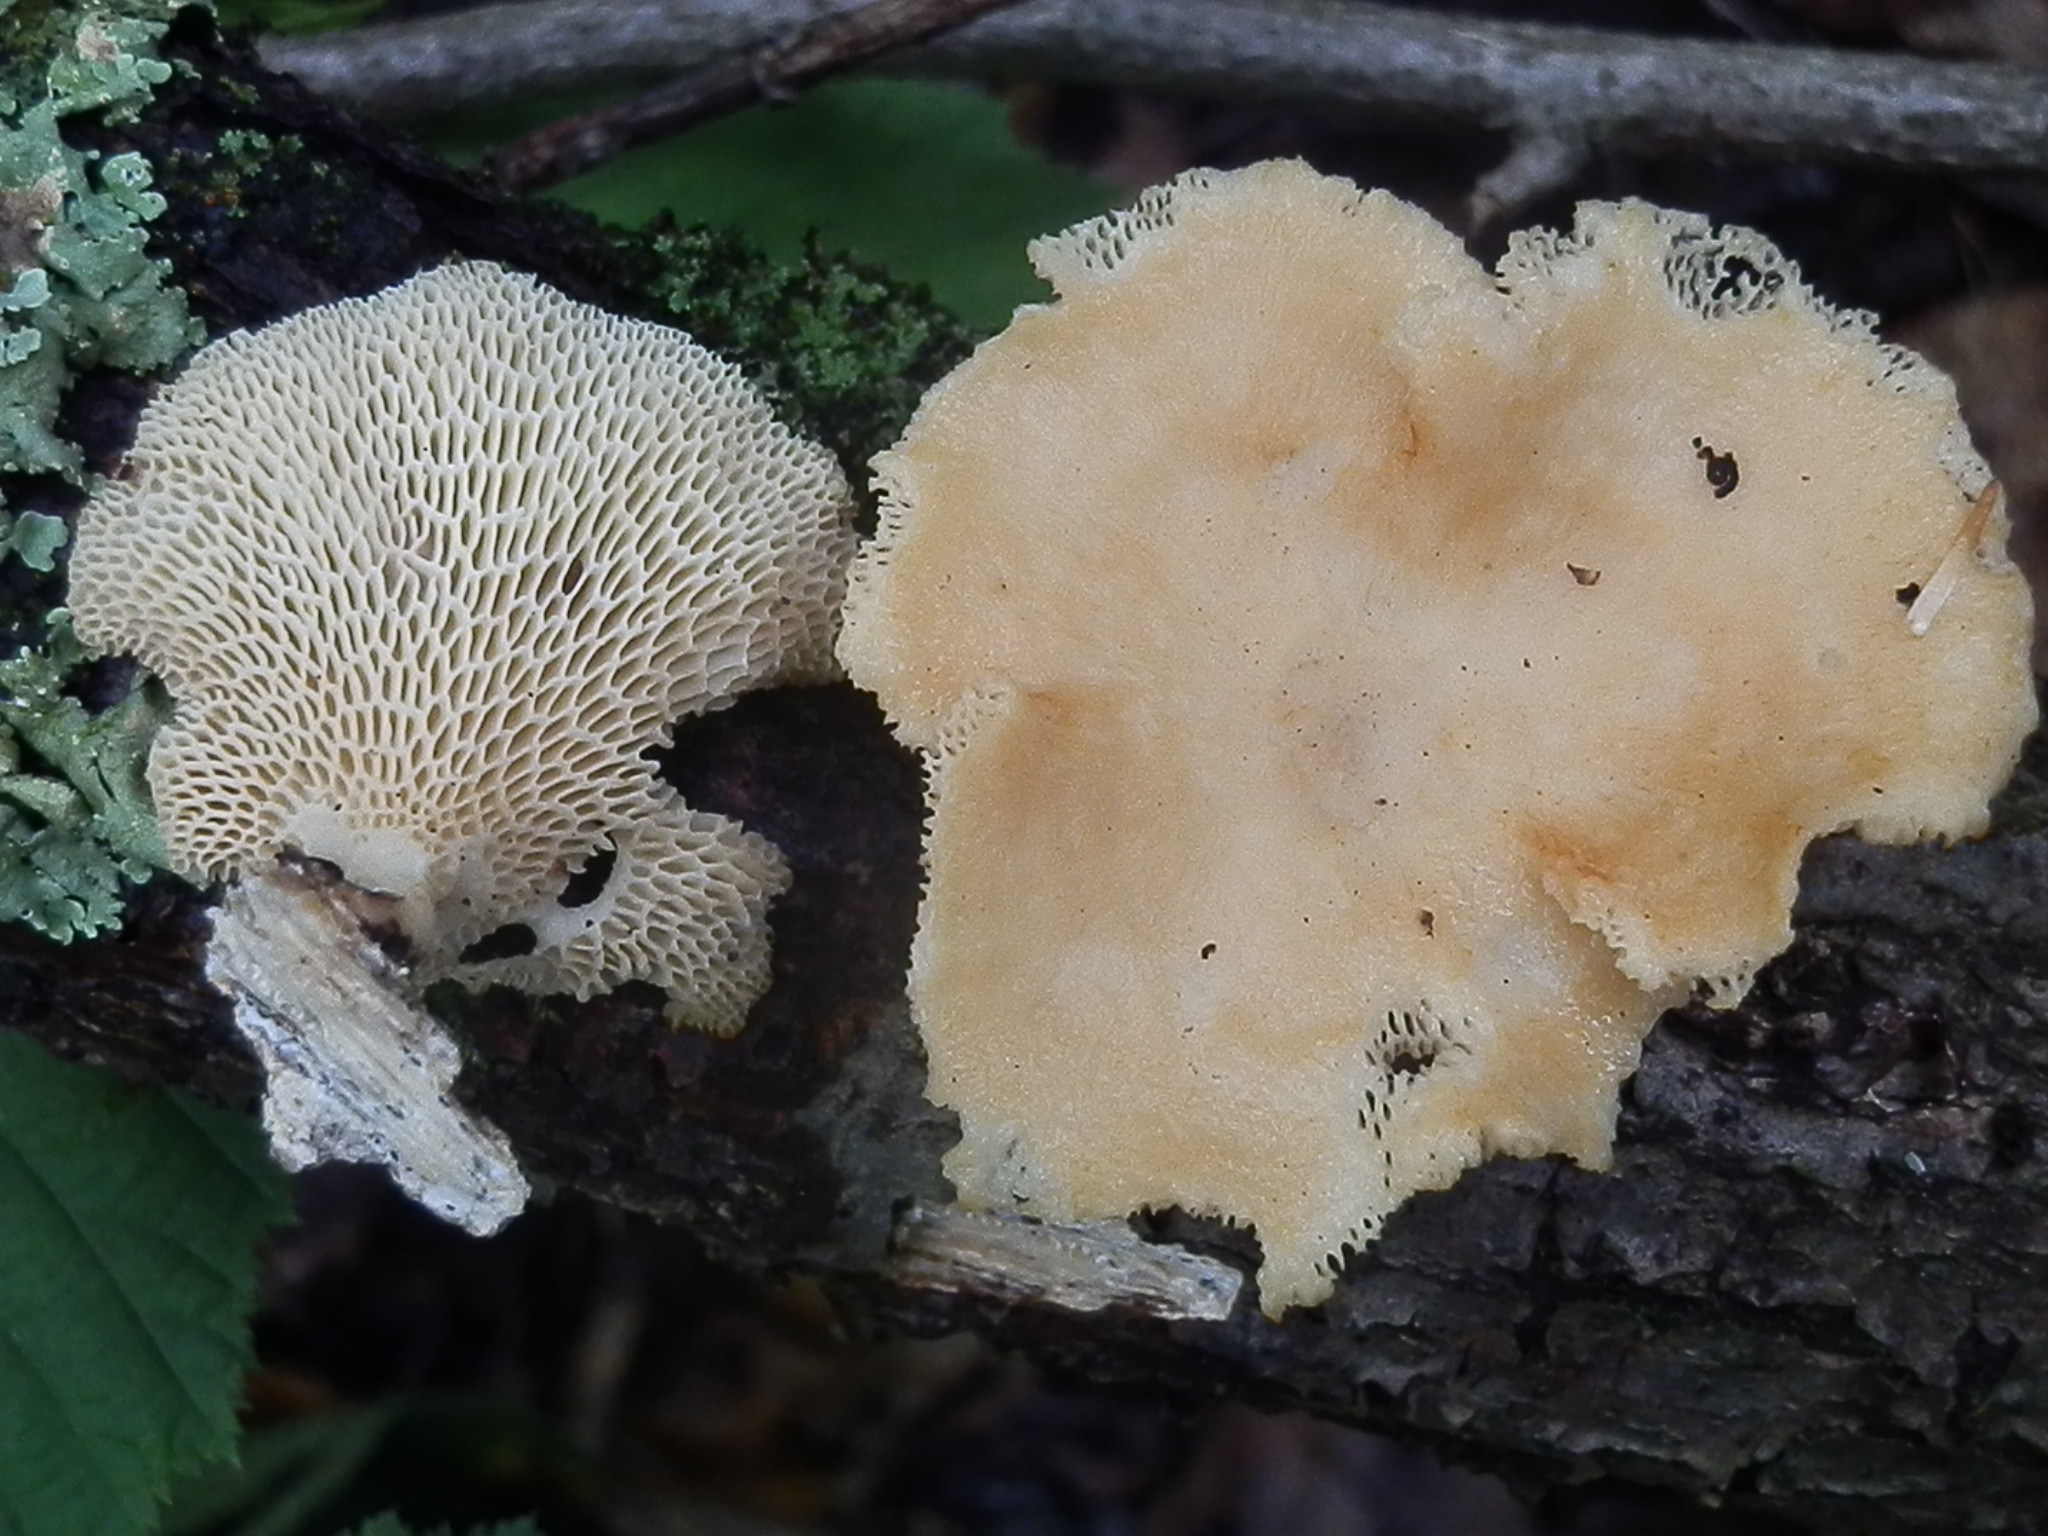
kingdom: Fungi
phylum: Basidiomycota
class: Agaricomycetes
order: Polyporales
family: Polyporaceae
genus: Neofavolus
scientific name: Neofavolus alveolaris
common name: Hexagonal-pored polypore
